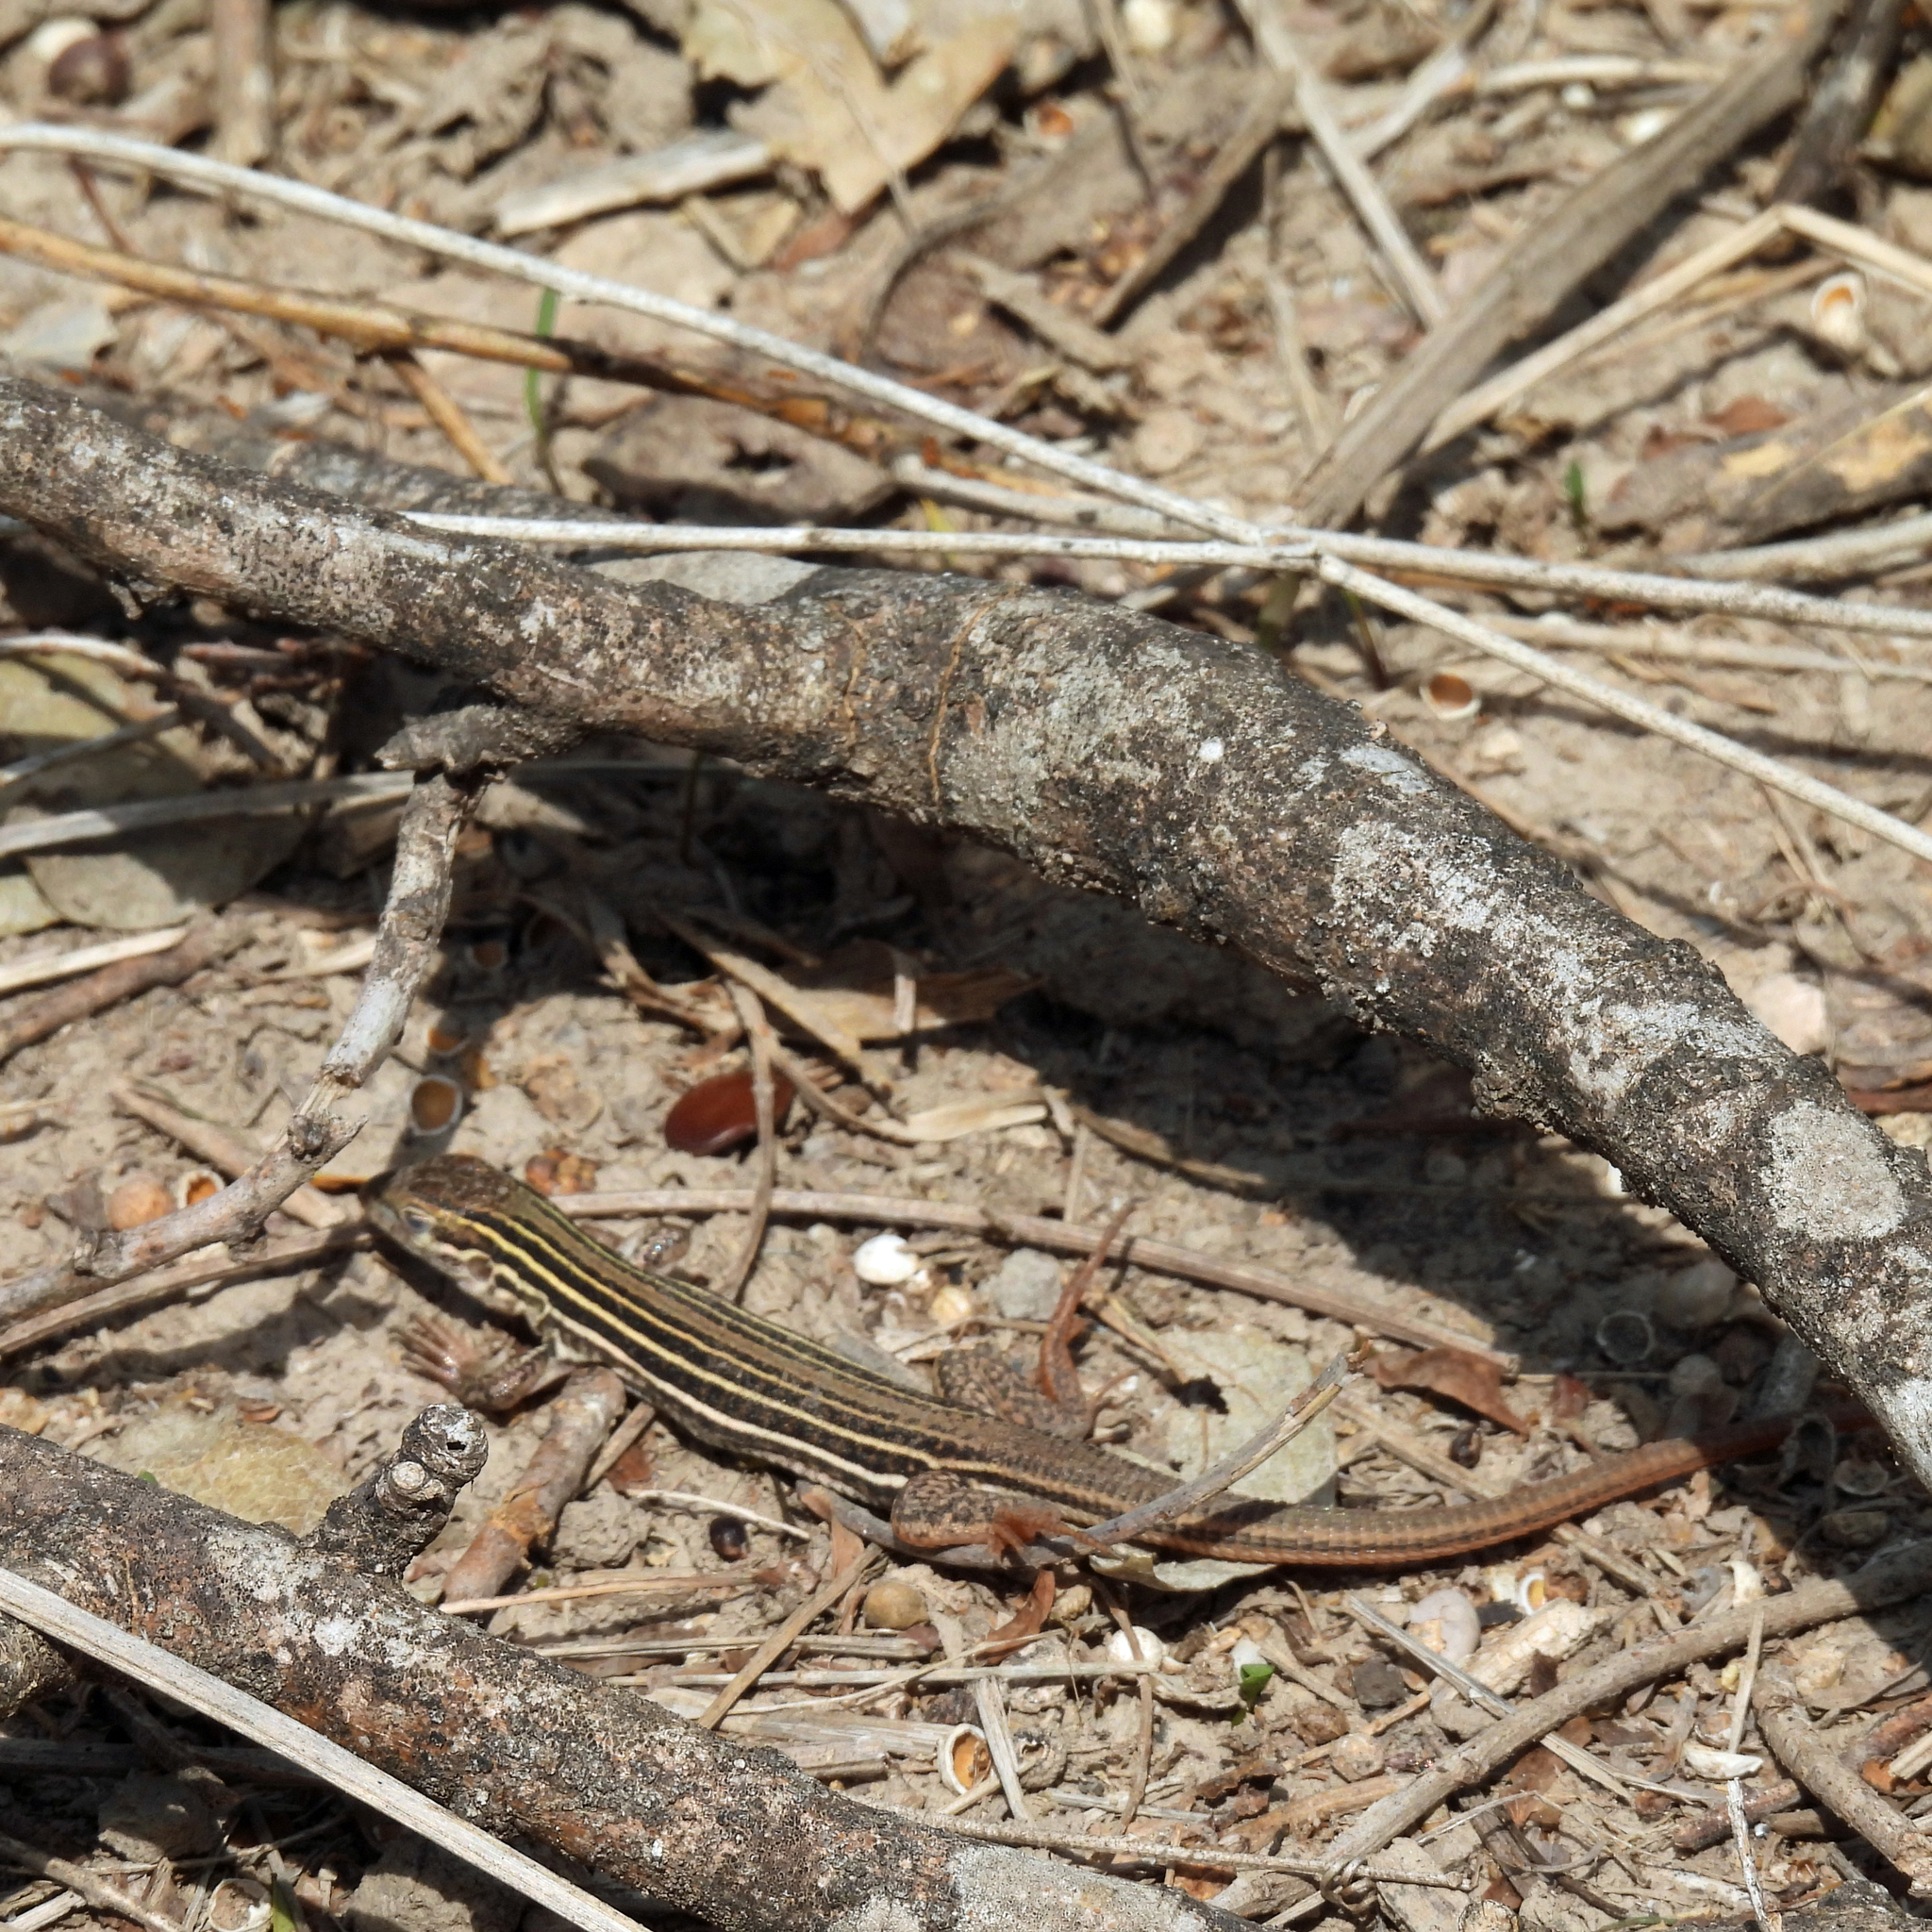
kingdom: Animalia
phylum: Chordata
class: Squamata
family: Teiidae
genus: Aspidoscelis
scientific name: Aspidoscelis gularis
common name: Eastern spotted whiptail
